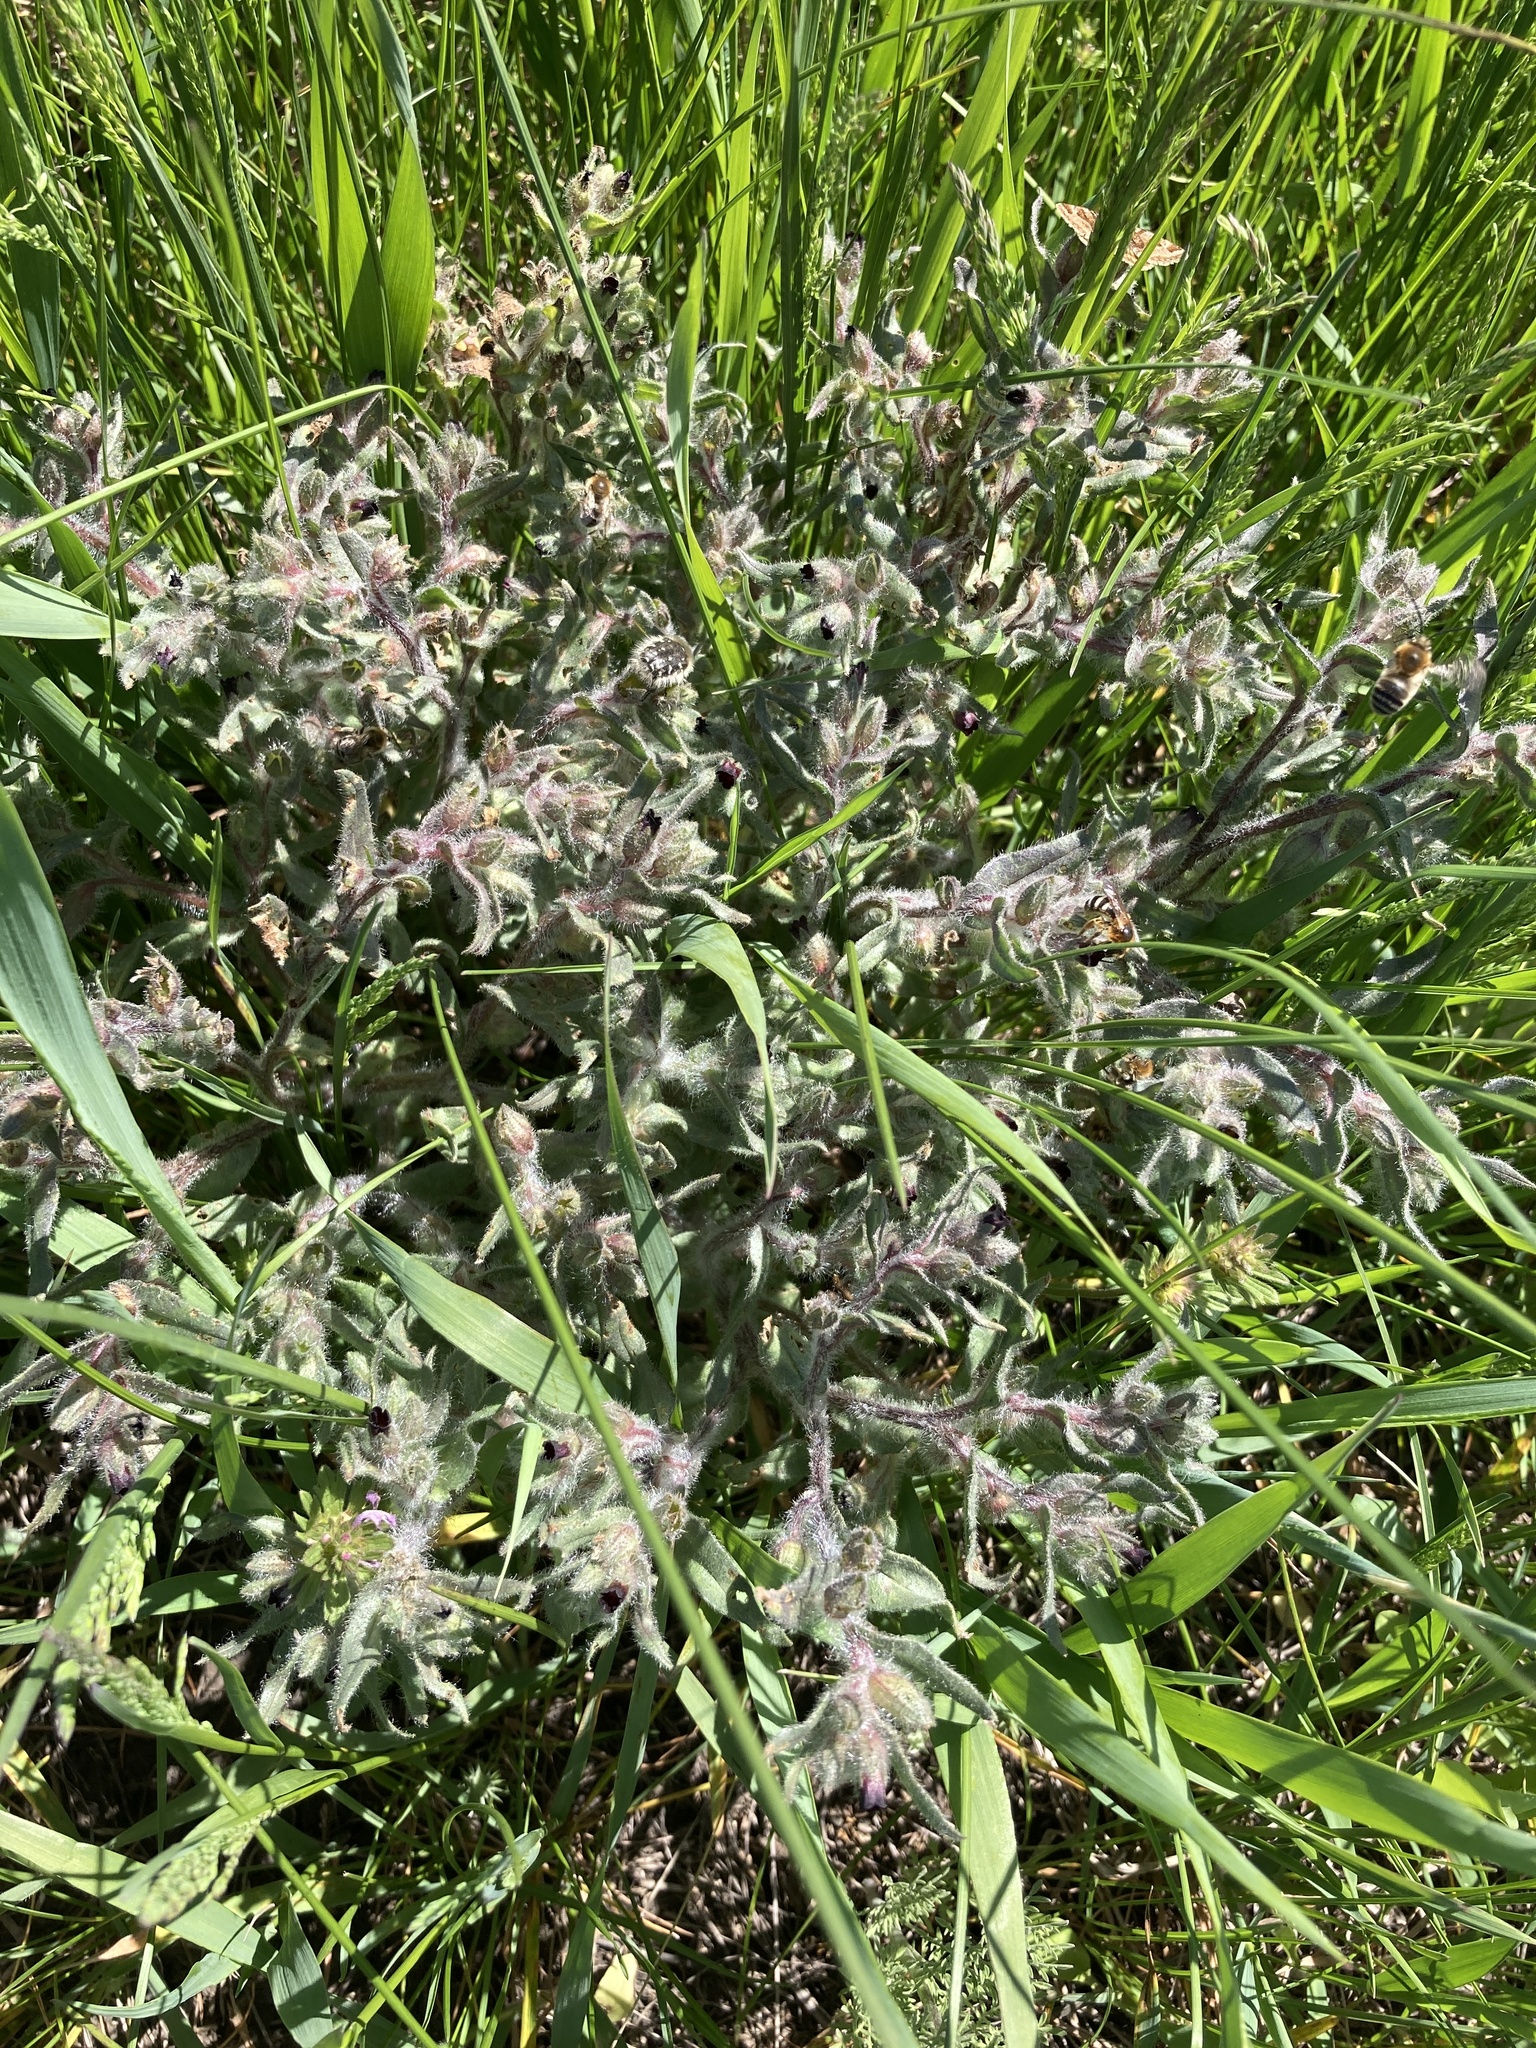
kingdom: Plantae
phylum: Tracheophyta
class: Magnoliopsida
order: Boraginales
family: Boraginaceae
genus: Nonea
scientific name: Nonea pulla
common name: Brown nonea
